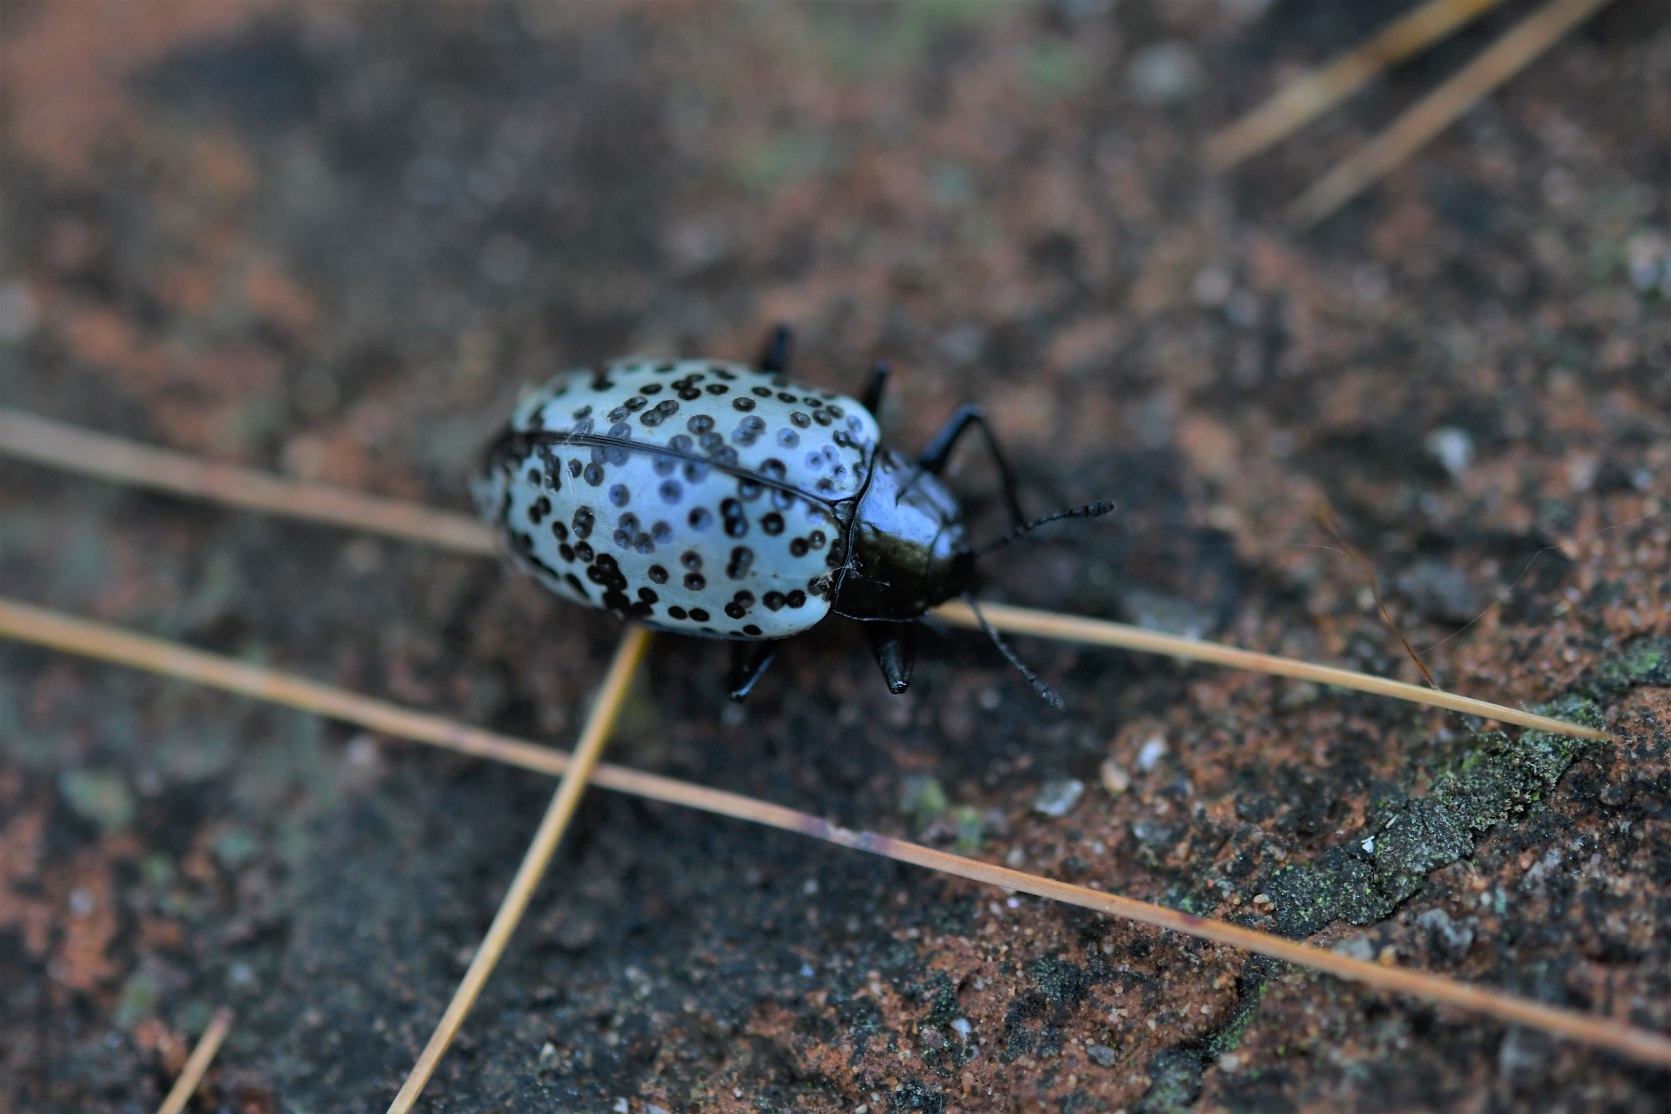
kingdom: Animalia
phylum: Arthropoda
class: Insecta
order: Coleoptera
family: Erotylidae
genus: Gibbifer
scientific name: Gibbifer californicus
